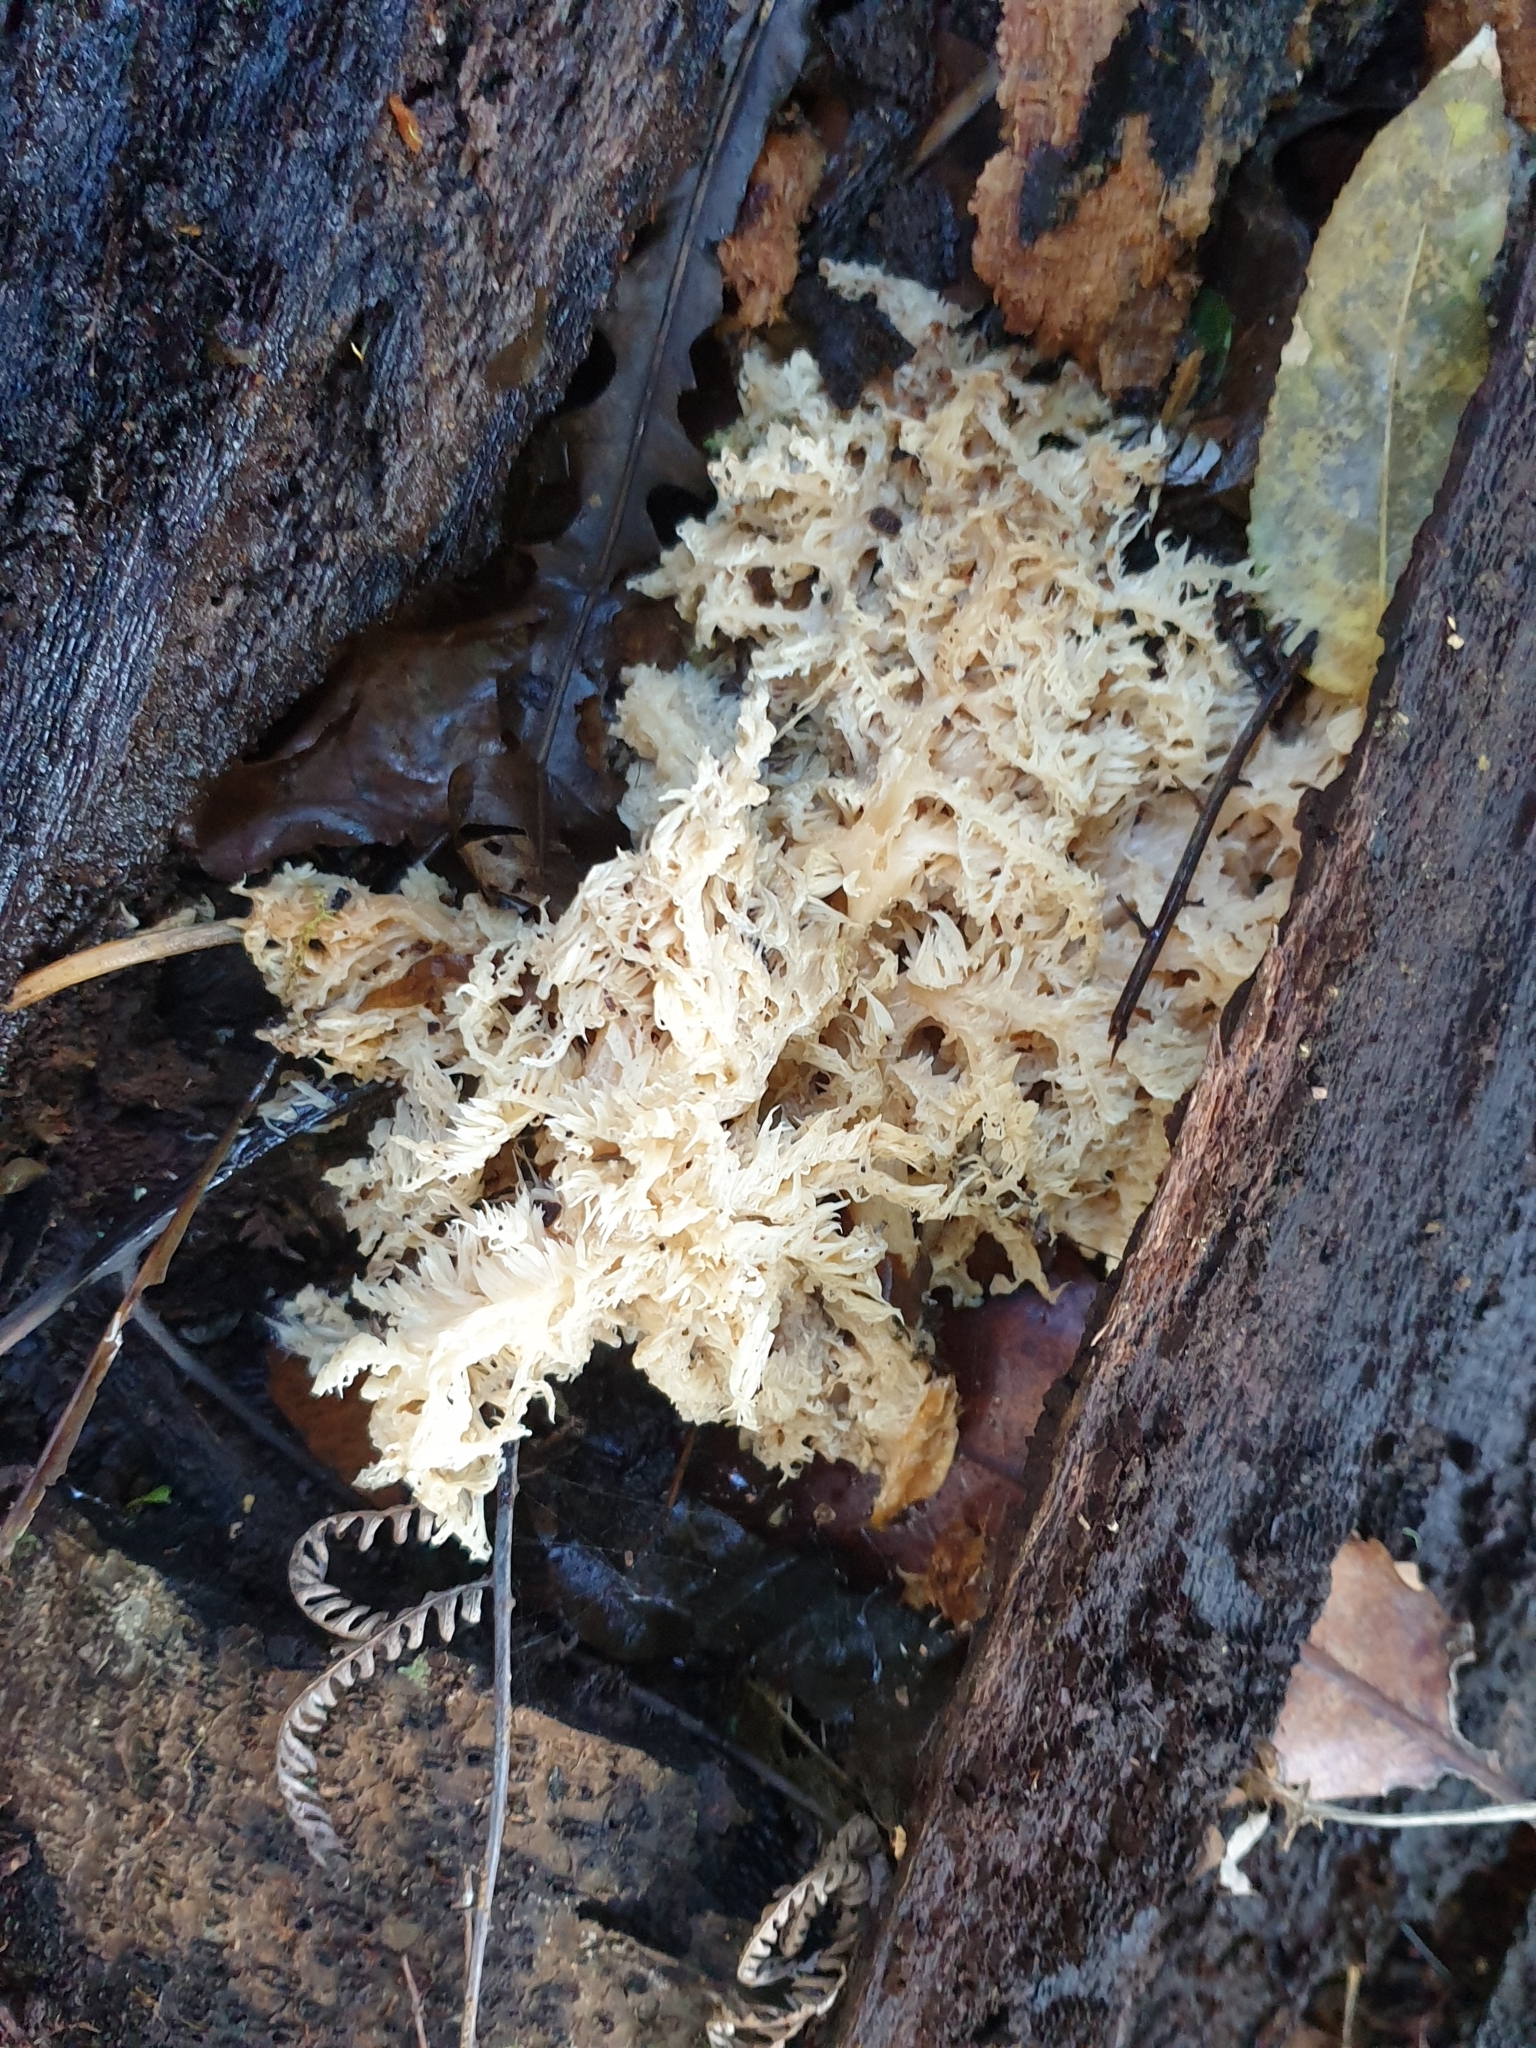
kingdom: Fungi
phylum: Basidiomycota
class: Agaricomycetes
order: Russulales
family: Hericiaceae
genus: Hericium
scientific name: Hericium novae-zealandiae
